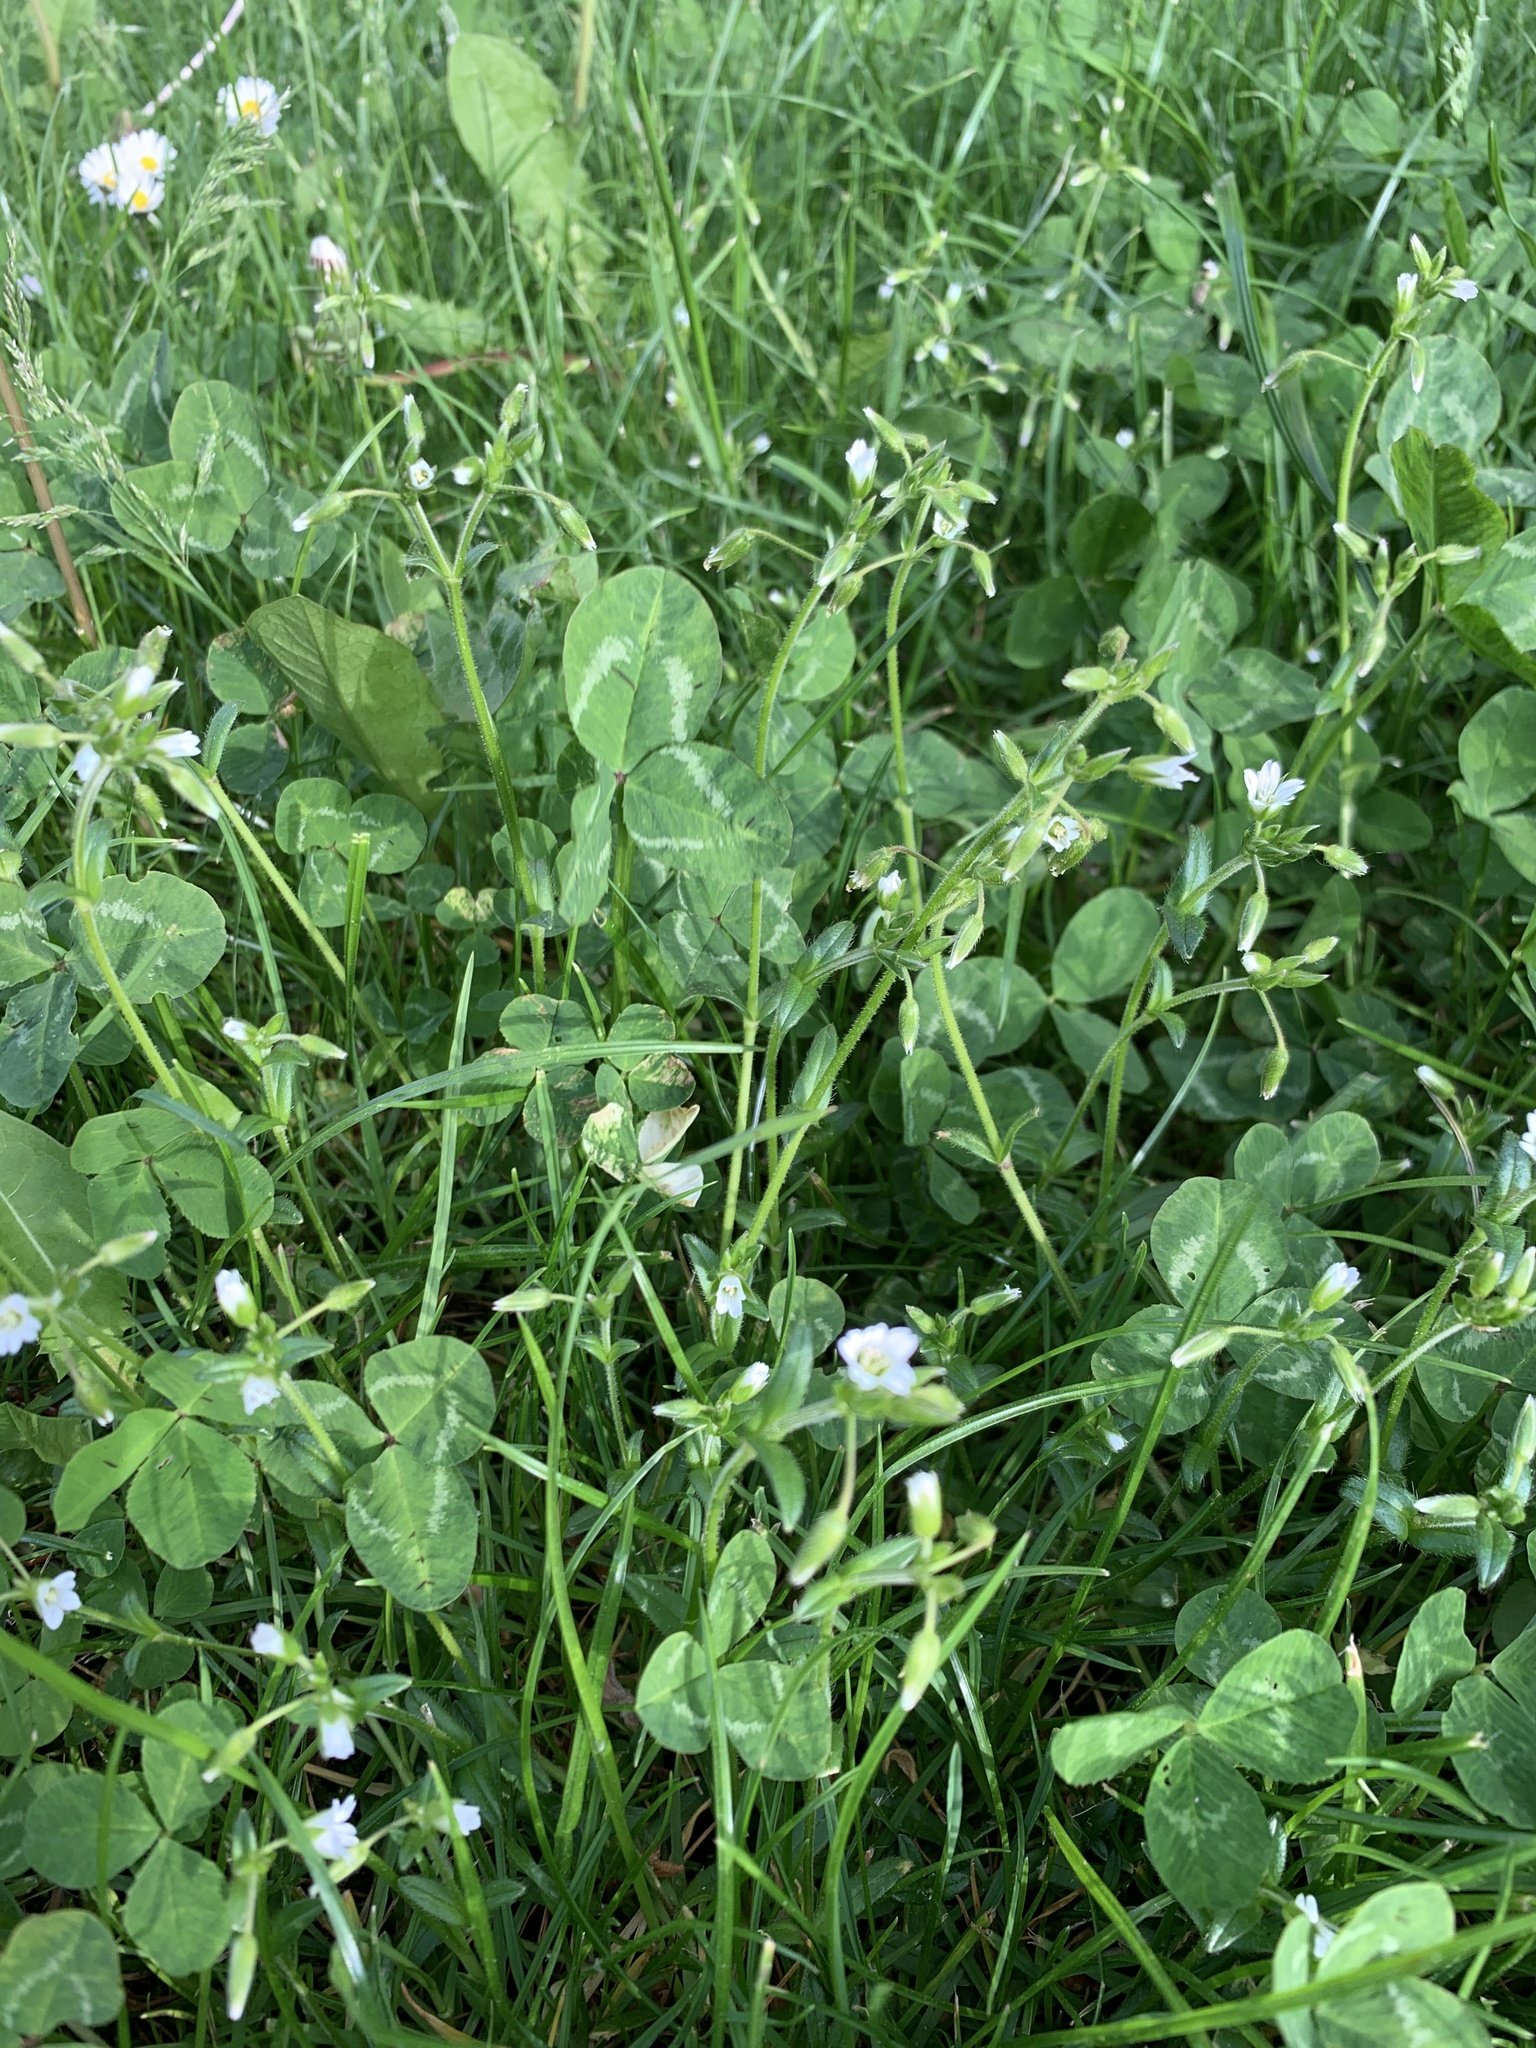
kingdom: Plantae
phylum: Tracheophyta
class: Magnoliopsida
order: Caryophyllales
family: Caryophyllaceae
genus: Cerastium
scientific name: Cerastium holosteoides
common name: Big chickweed
